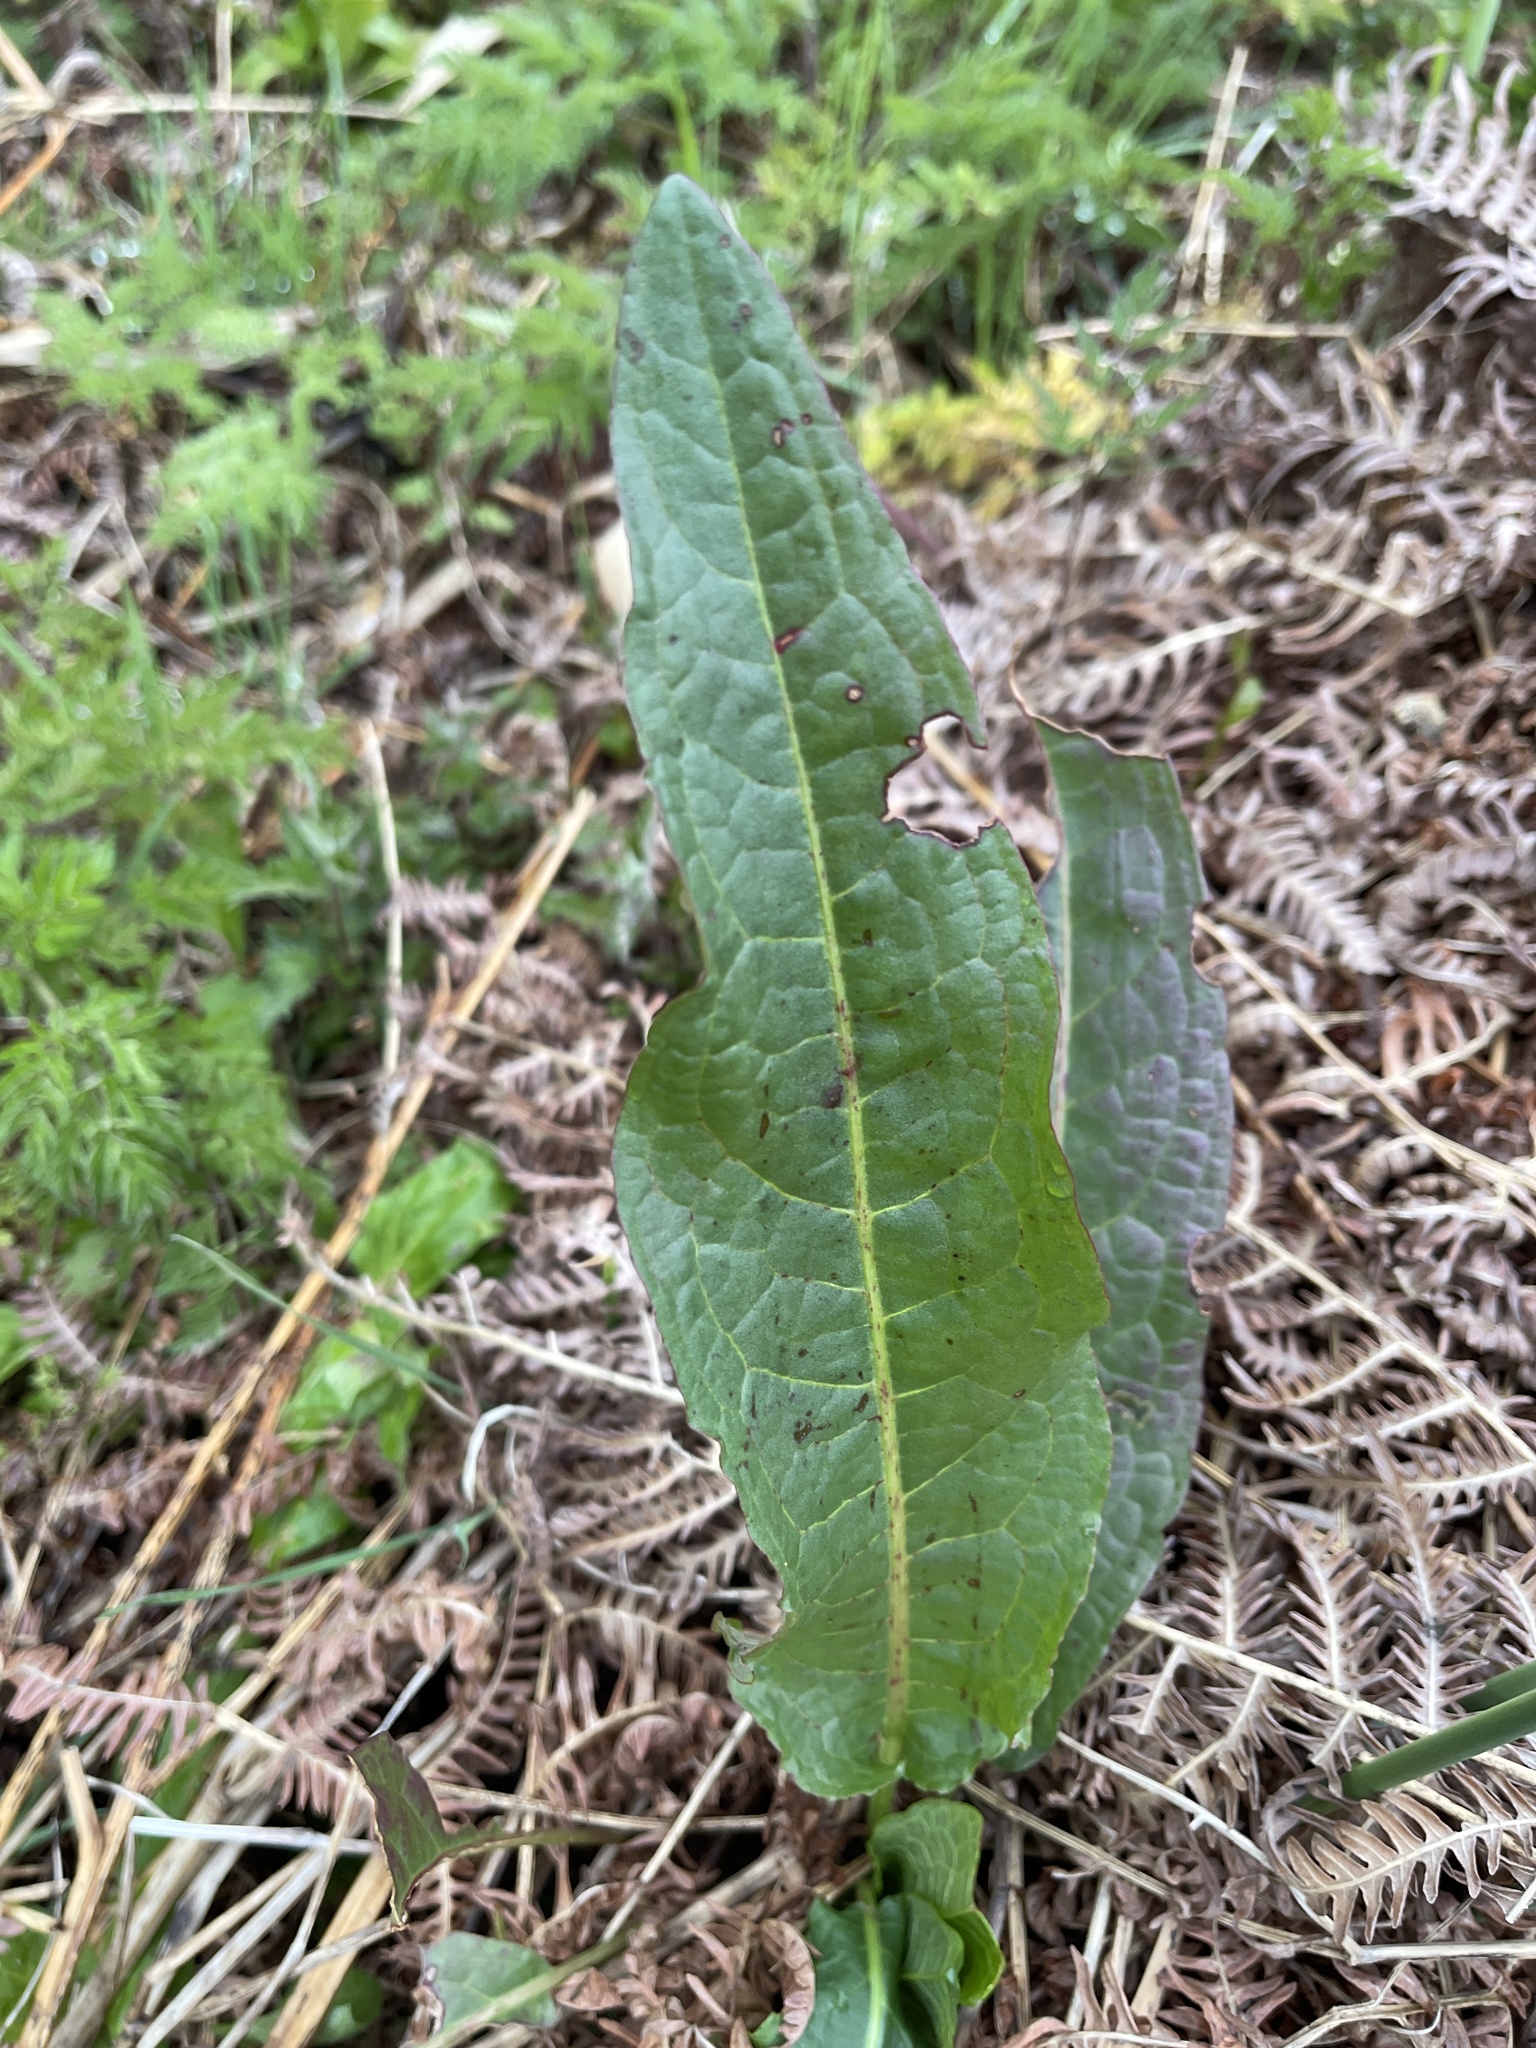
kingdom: Plantae
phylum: Tracheophyta
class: Magnoliopsida
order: Caryophyllales
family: Polygonaceae
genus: Rumex
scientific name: Rumex crispus
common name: Curled dock
